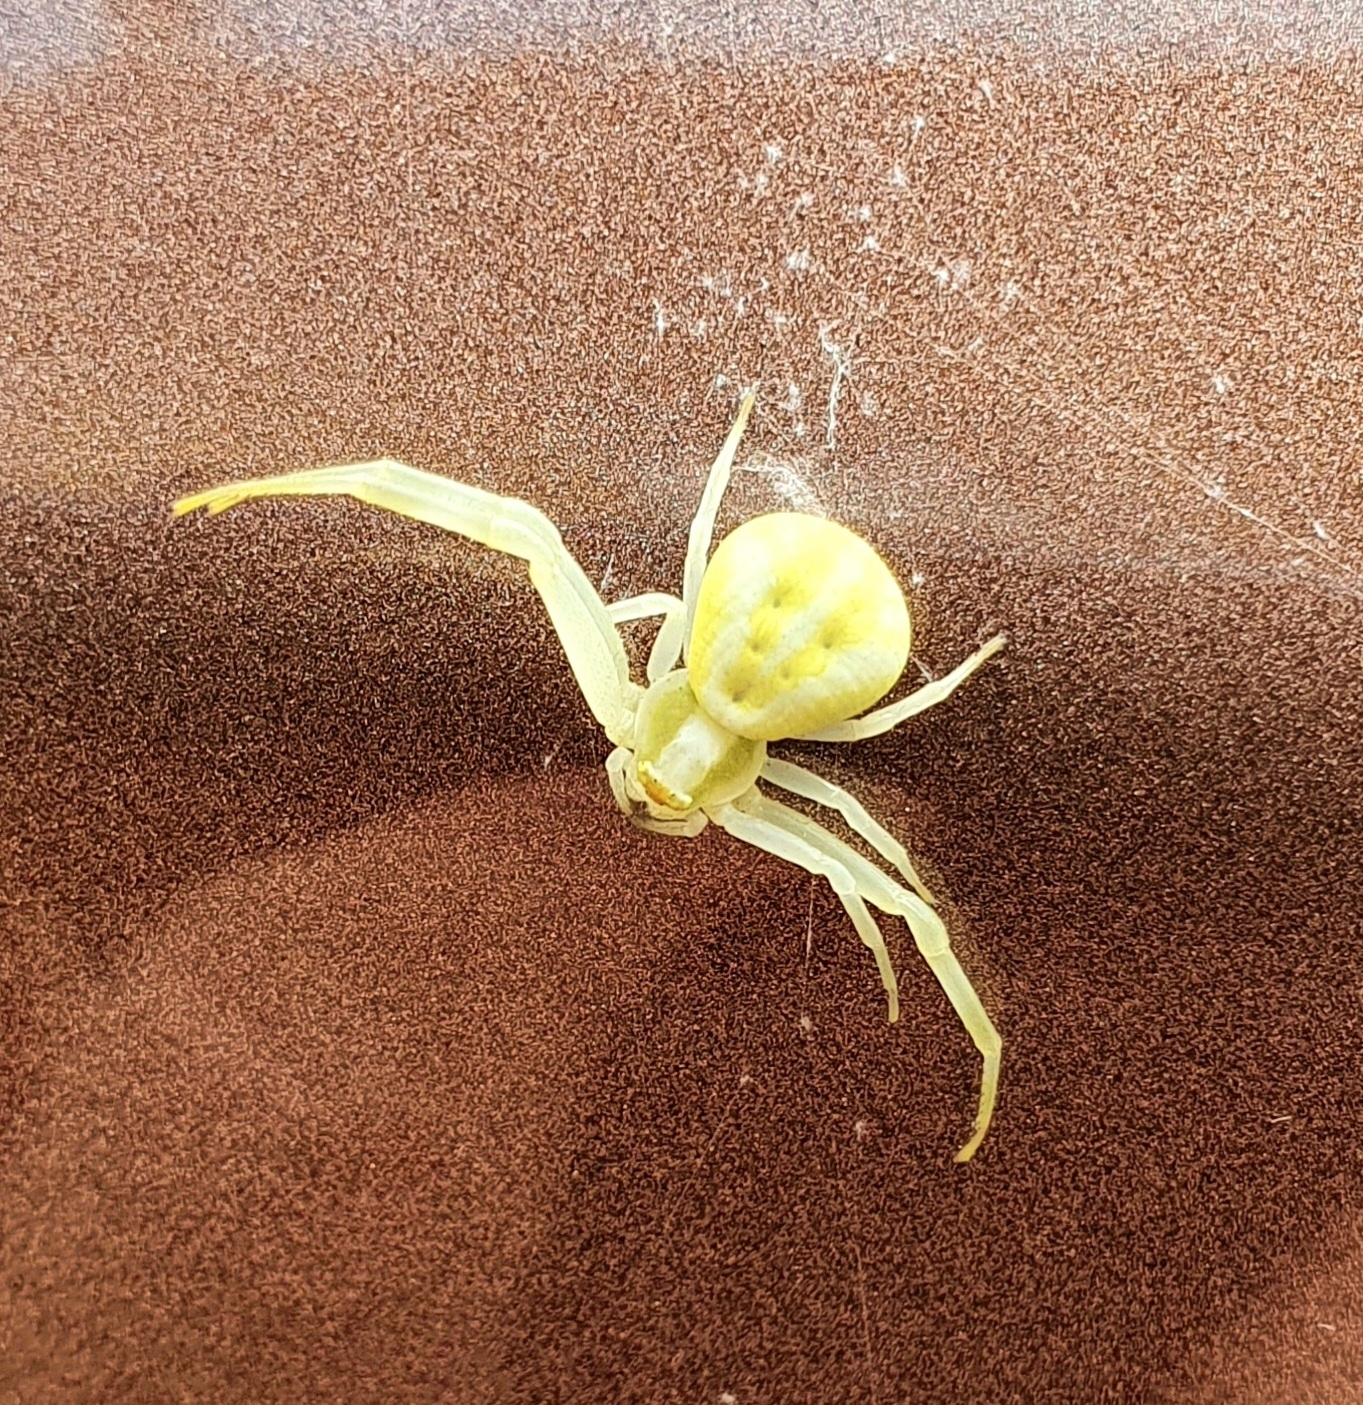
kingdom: Animalia
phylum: Arthropoda
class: Arachnida
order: Araneae
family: Thomisidae
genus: Misumena
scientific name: Misumena vatia
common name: Goldenrod crab spider
